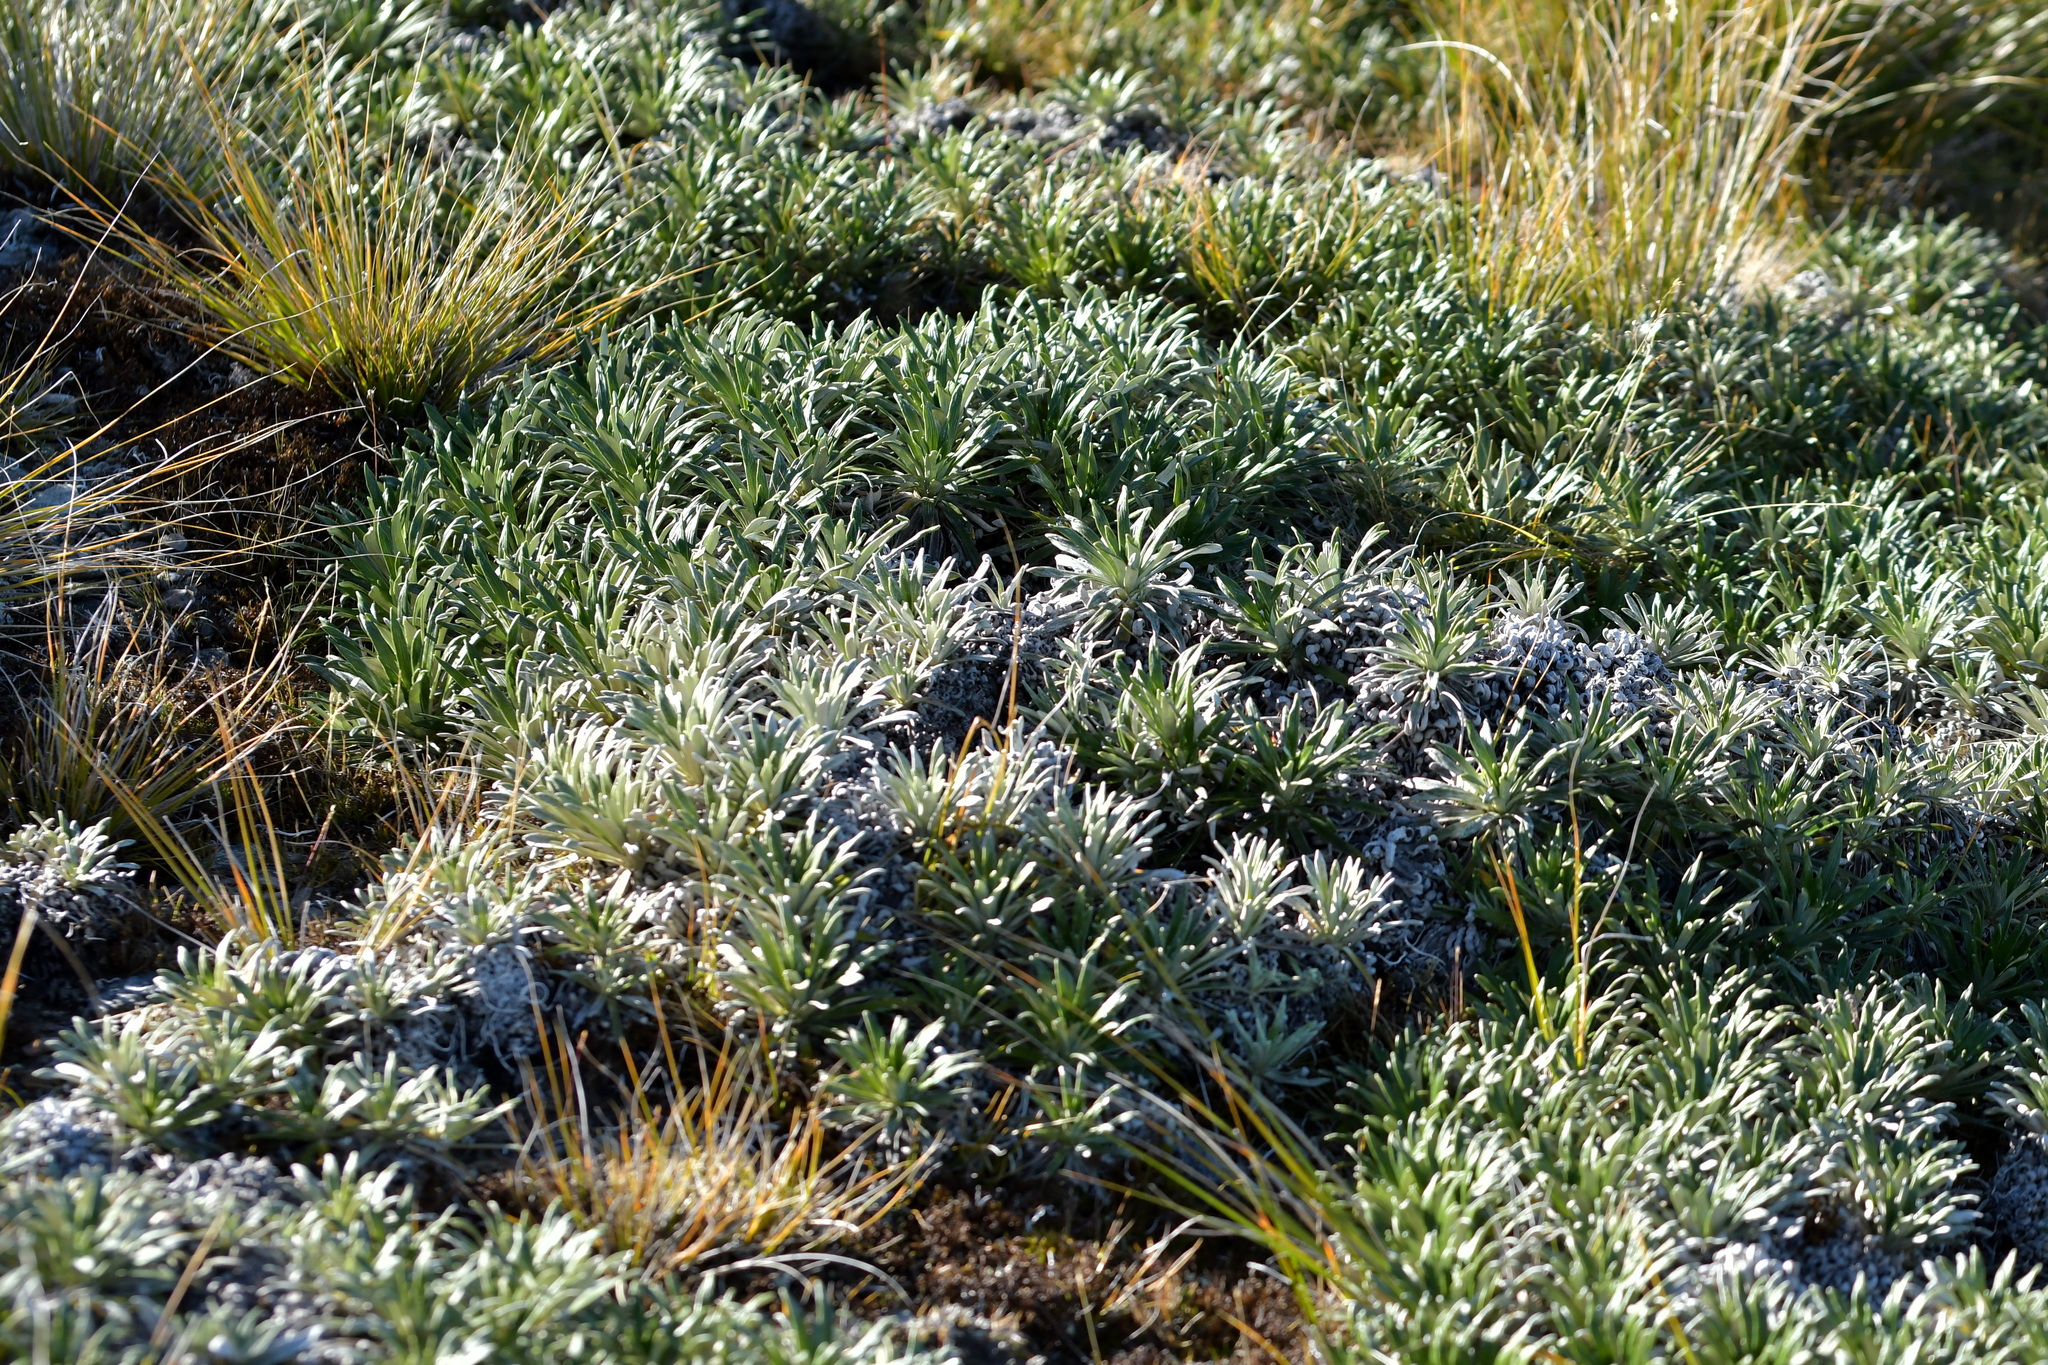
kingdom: Plantae
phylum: Tracheophyta
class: Magnoliopsida
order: Asterales
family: Asteraceae
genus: Celmisia
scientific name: Celmisia viscosa
